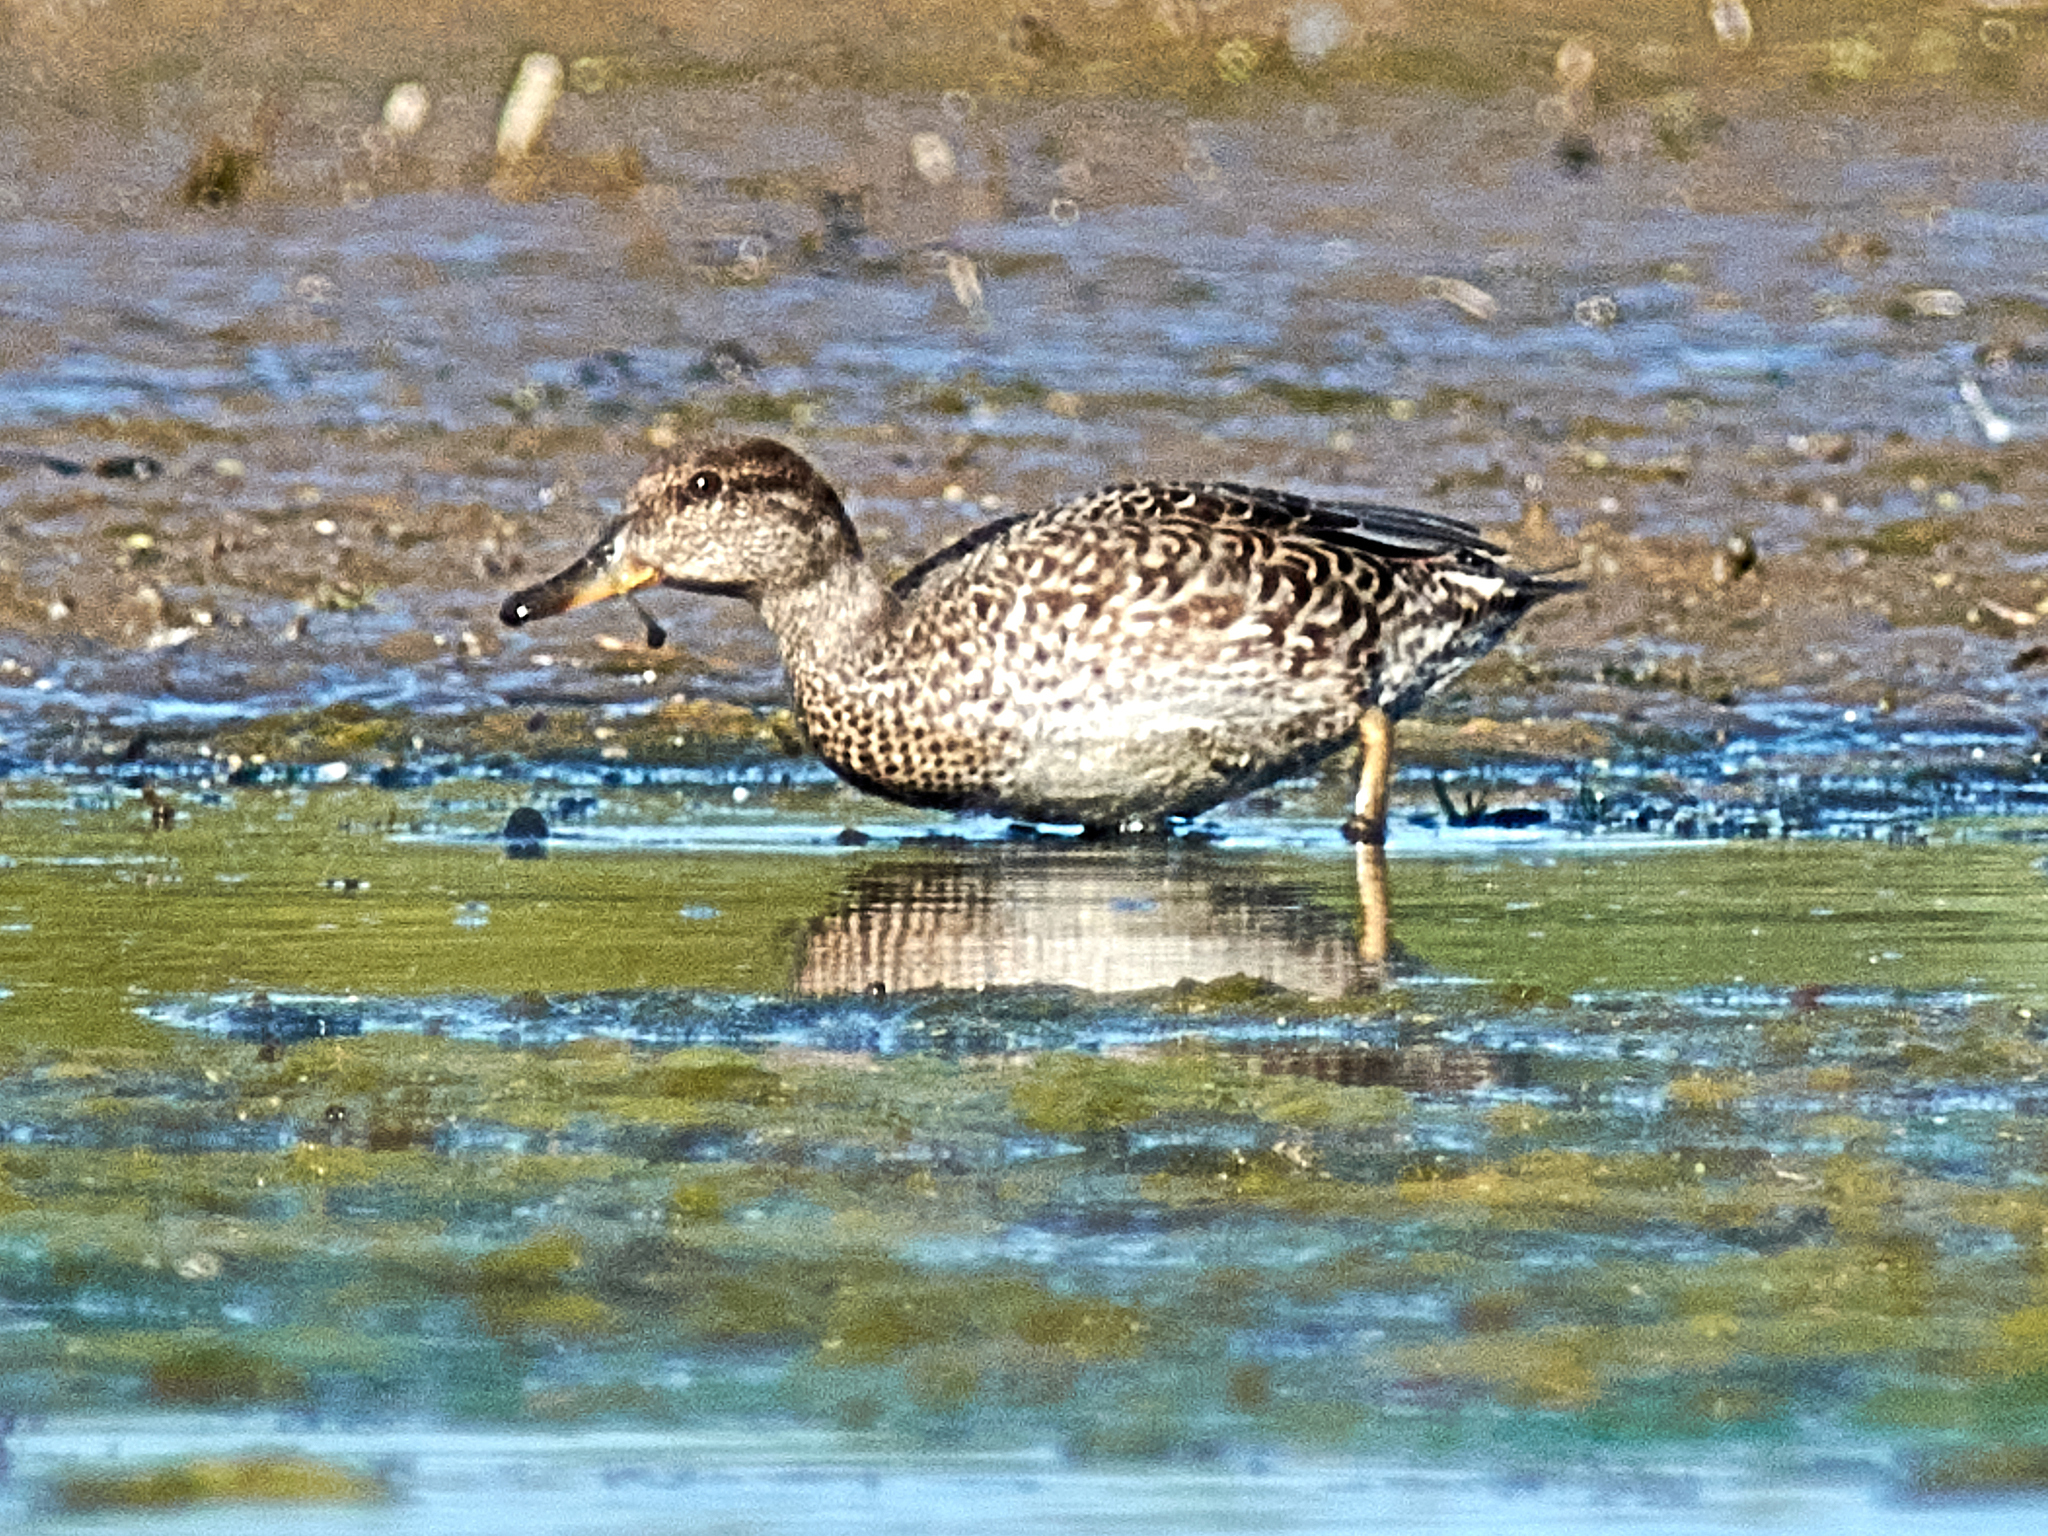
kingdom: Animalia
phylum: Chordata
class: Aves
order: Anseriformes
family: Anatidae
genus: Anas
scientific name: Anas crecca
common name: Eurasian teal
